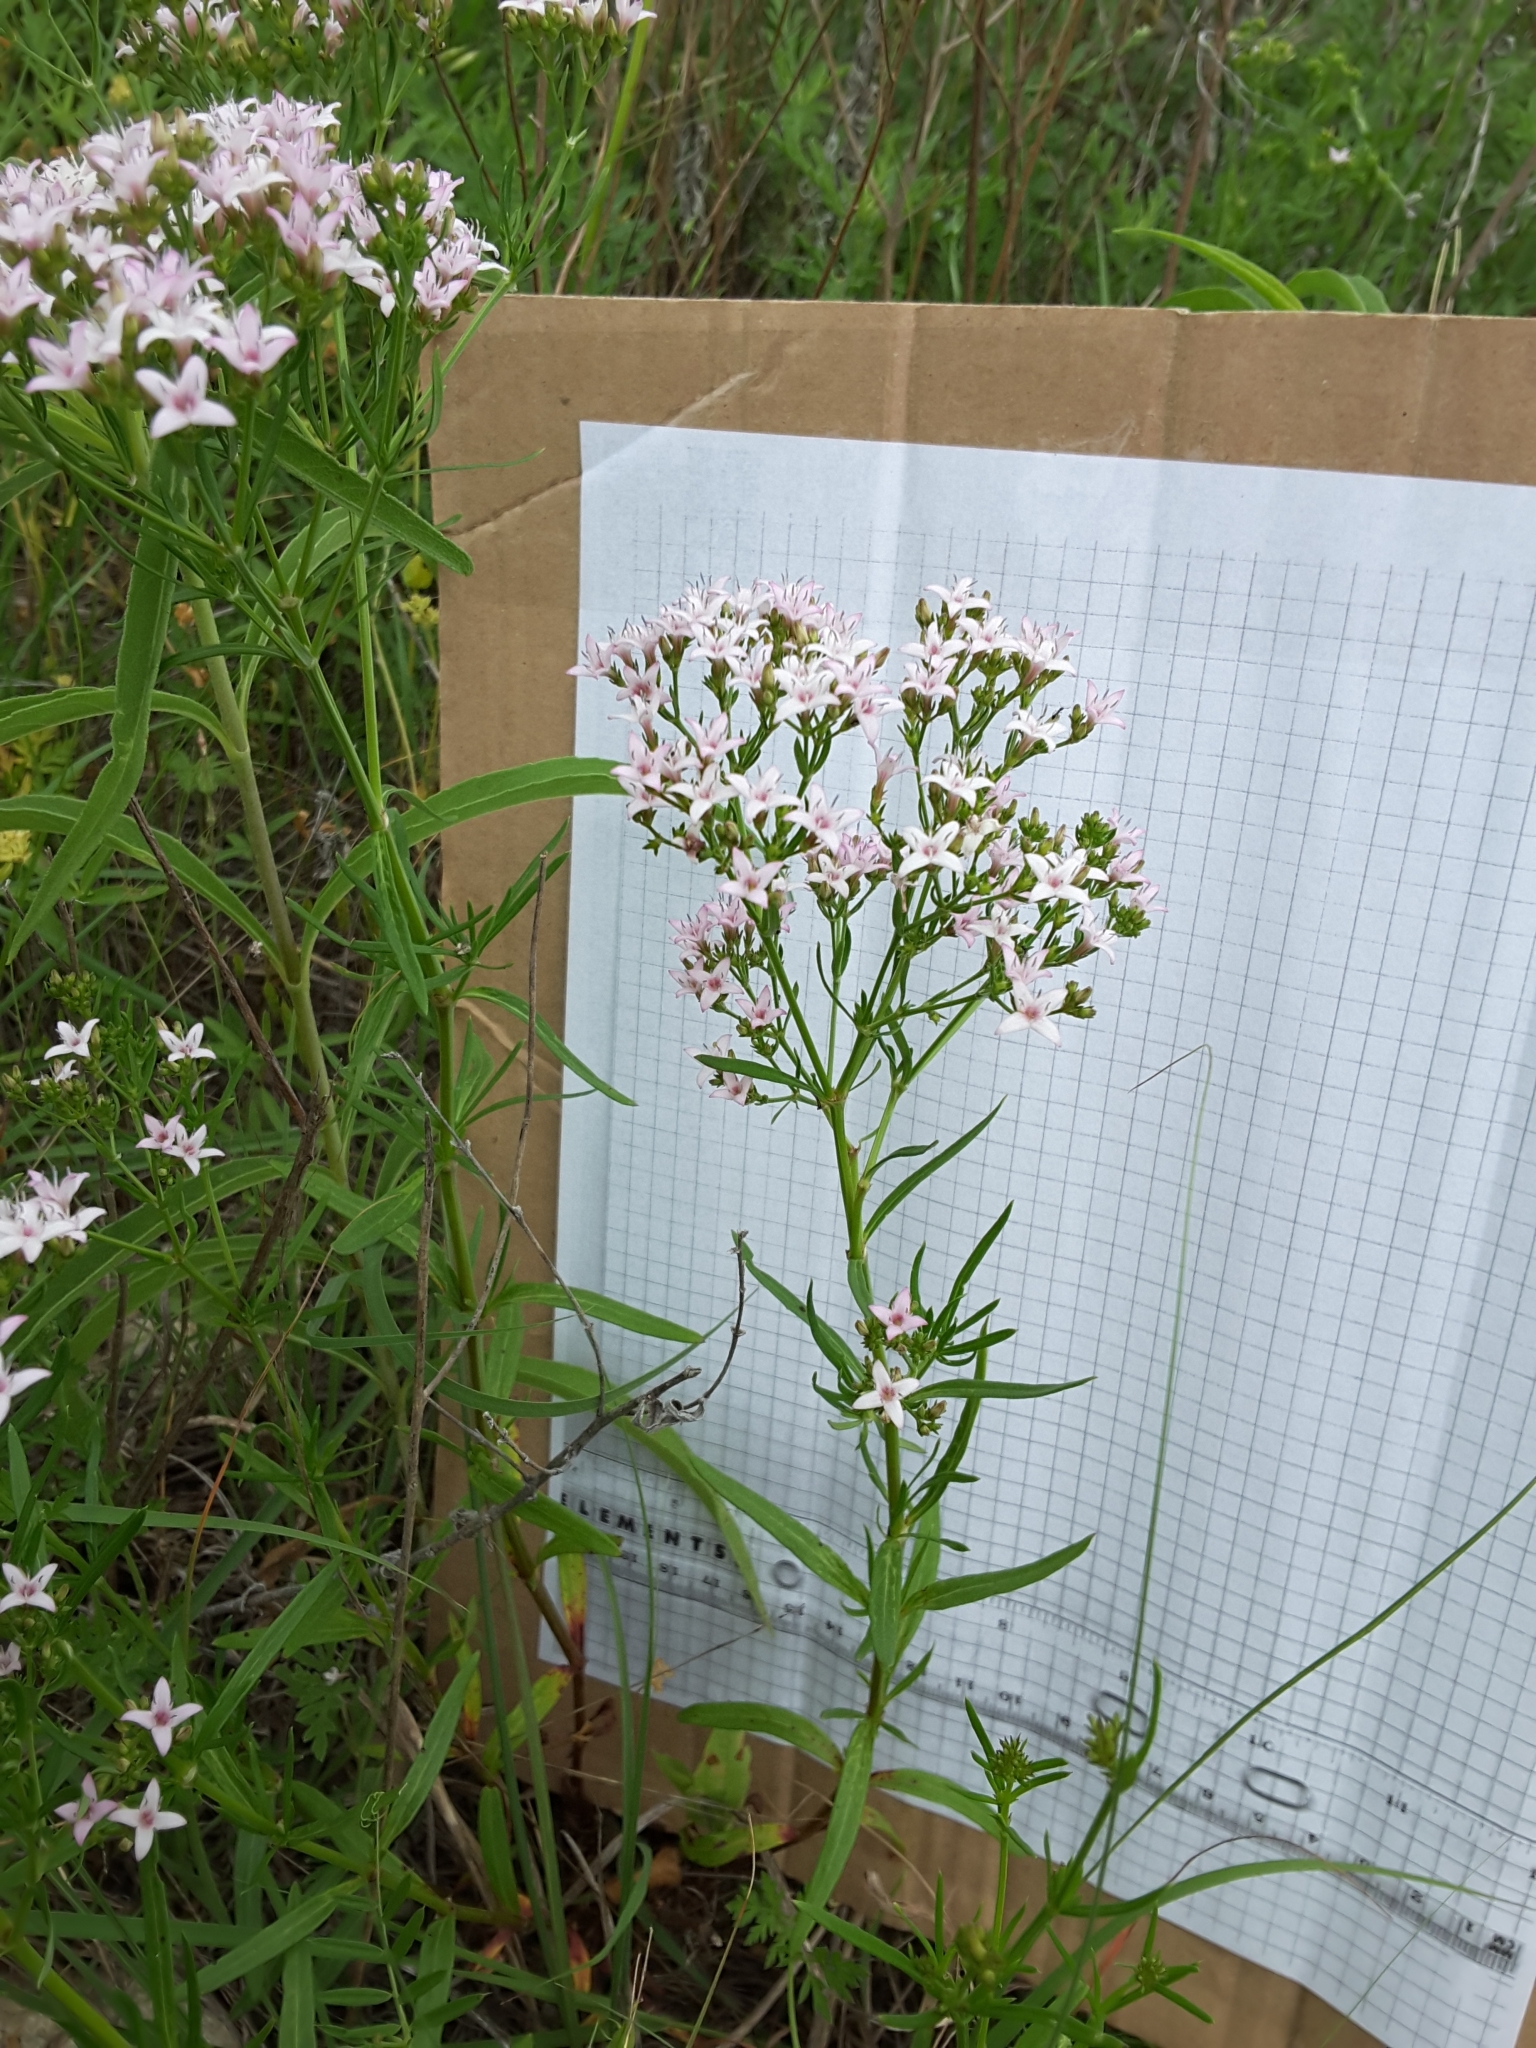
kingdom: Plantae
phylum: Tracheophyta
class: Magnoliopsida
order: Gentianales
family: Rubiaceae
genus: Stenaria
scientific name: Stenaria nigricans
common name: Diamondflowers
